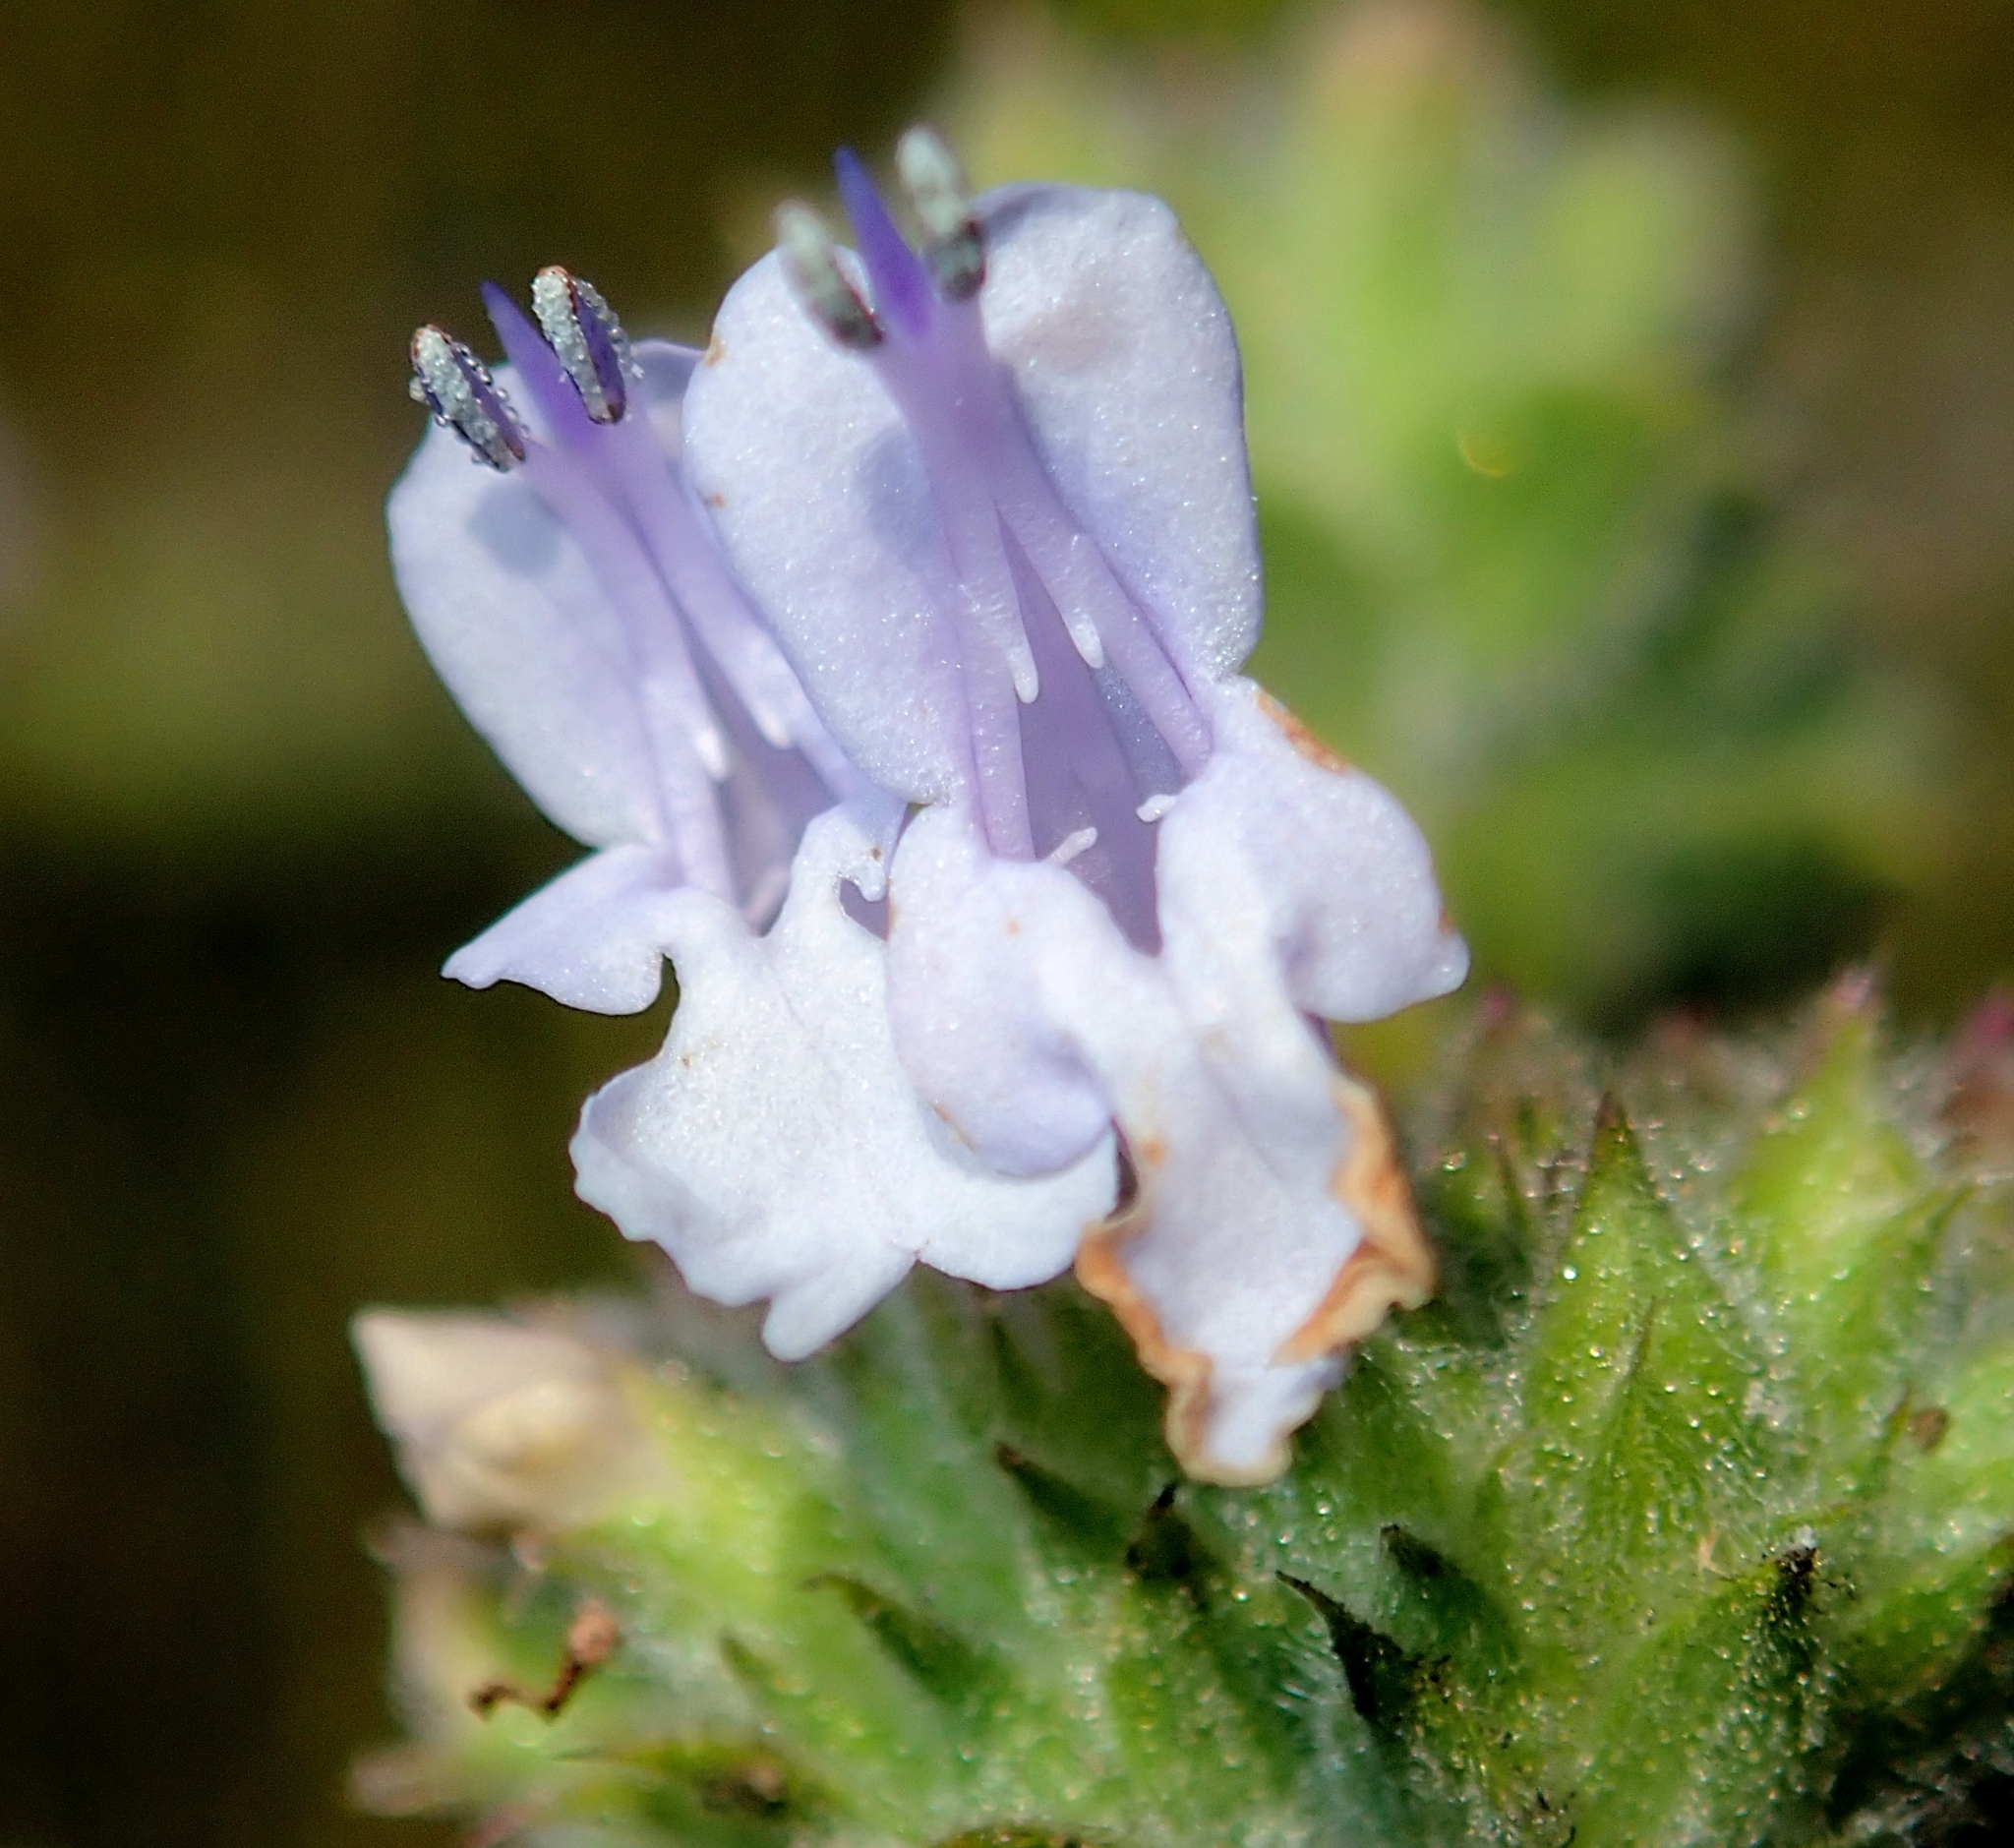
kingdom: Plantae
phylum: Tracheophyta
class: Magnoliopsida
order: Lamiales
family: Lamiaceae
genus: Salvia
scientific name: Salvia mellifera
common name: Black sage
